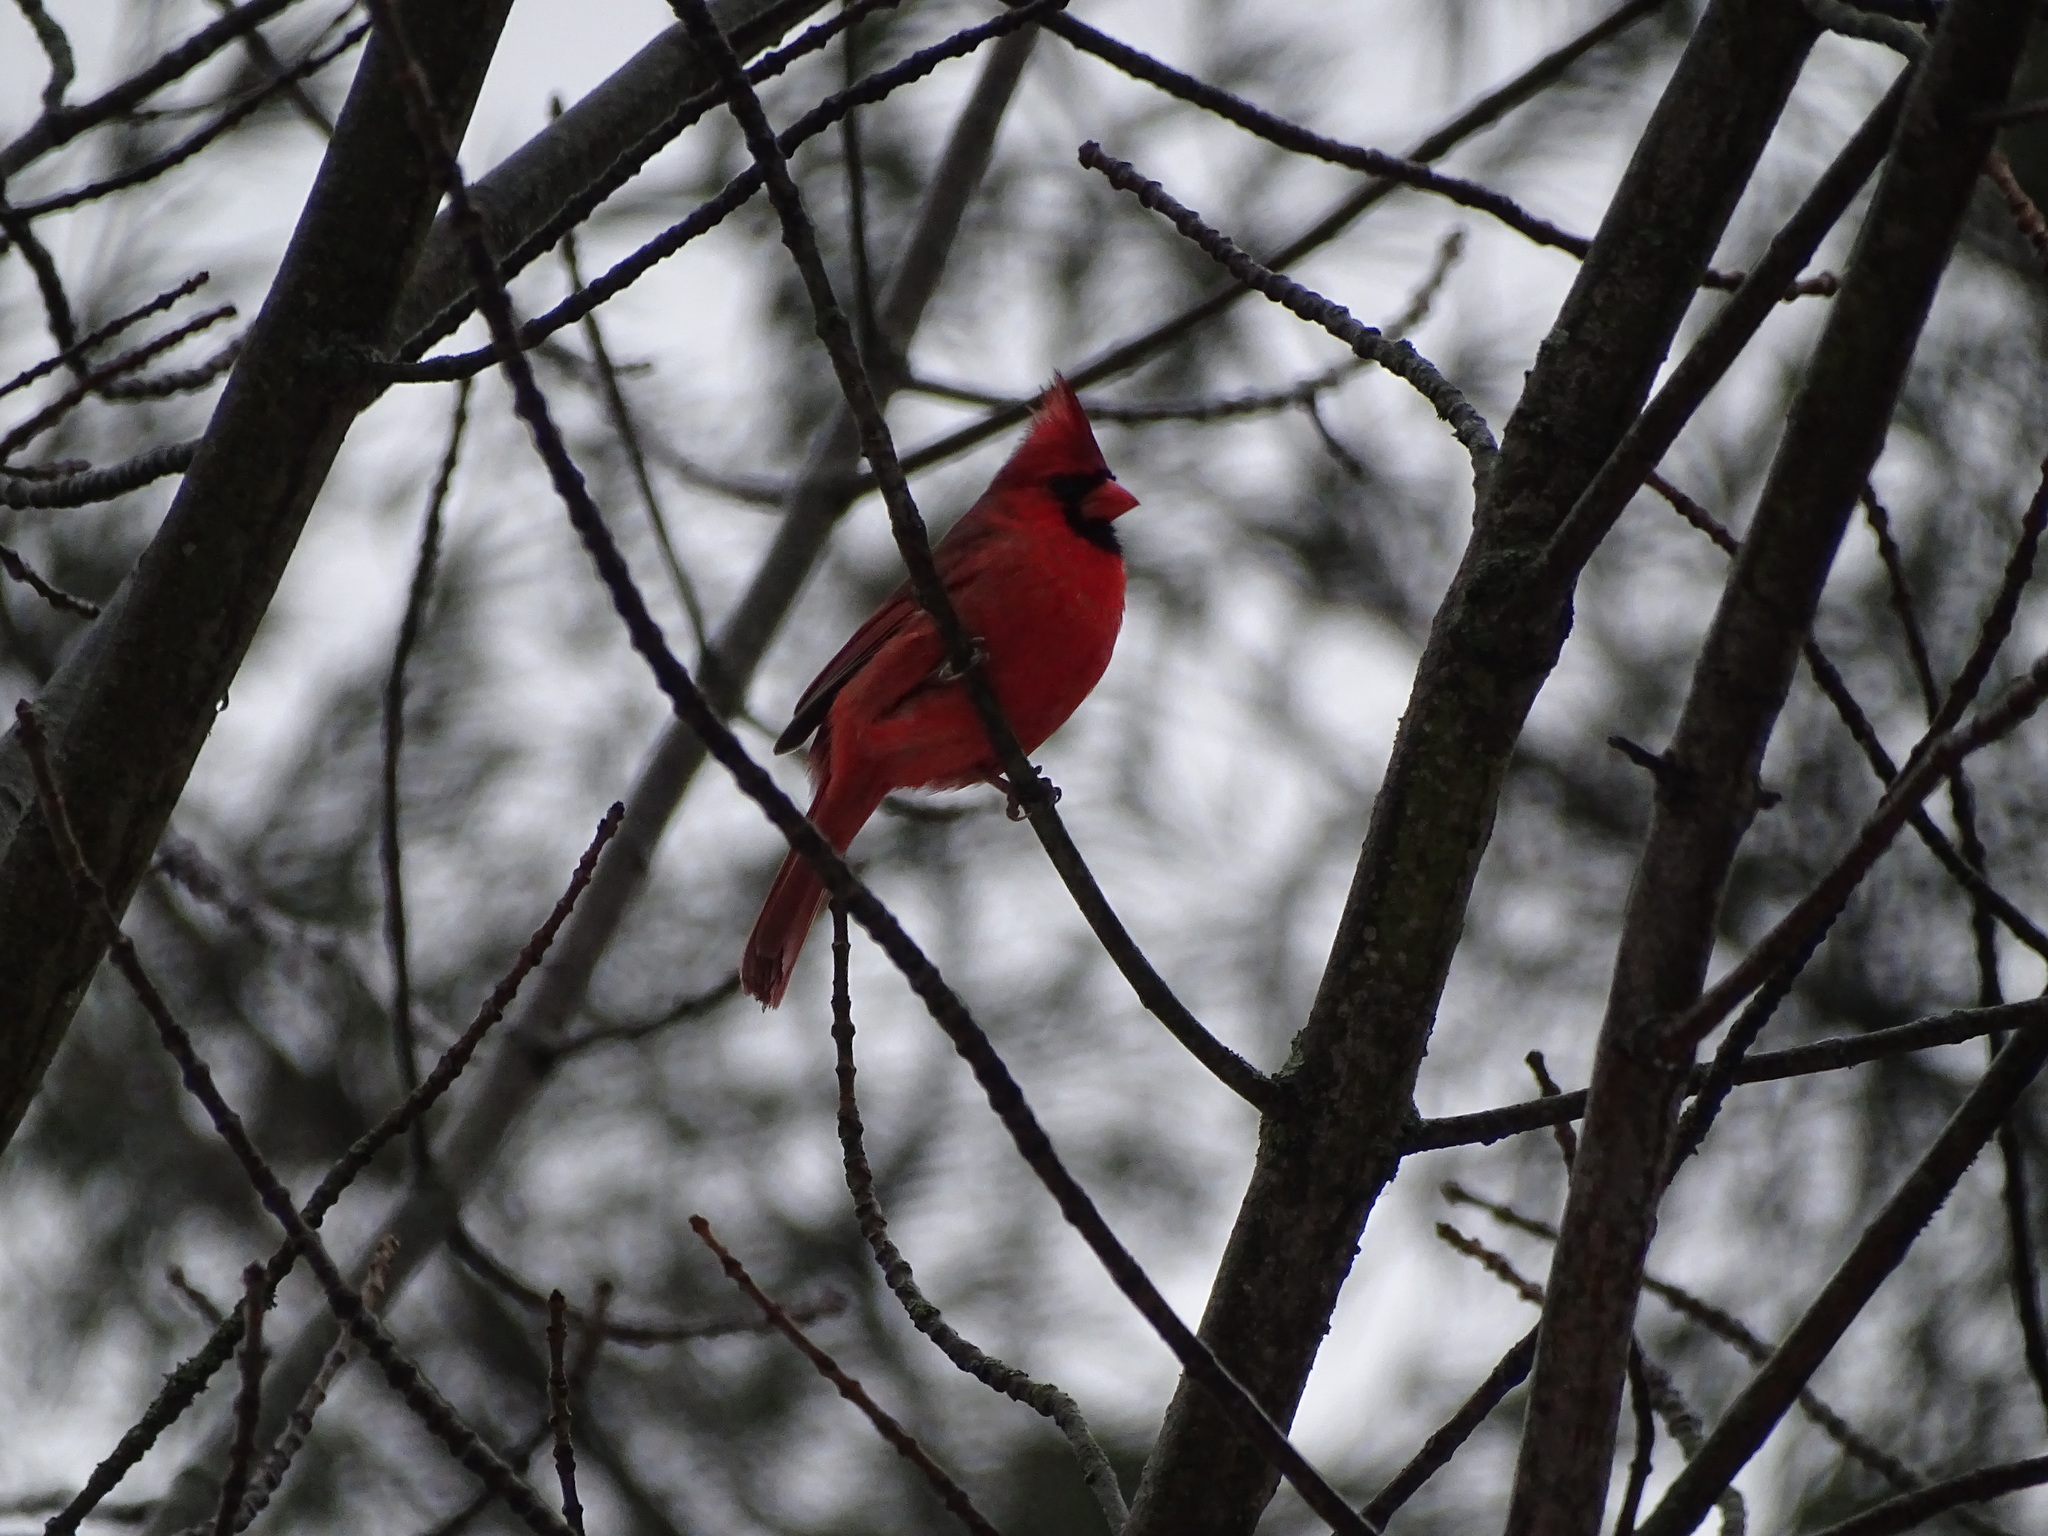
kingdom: Animalia
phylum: Chordata
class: Aves
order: Passeriformes
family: Cardinalidae
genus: Cardinalis
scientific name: Cardinalis cardinalis
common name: Northern cardinal
